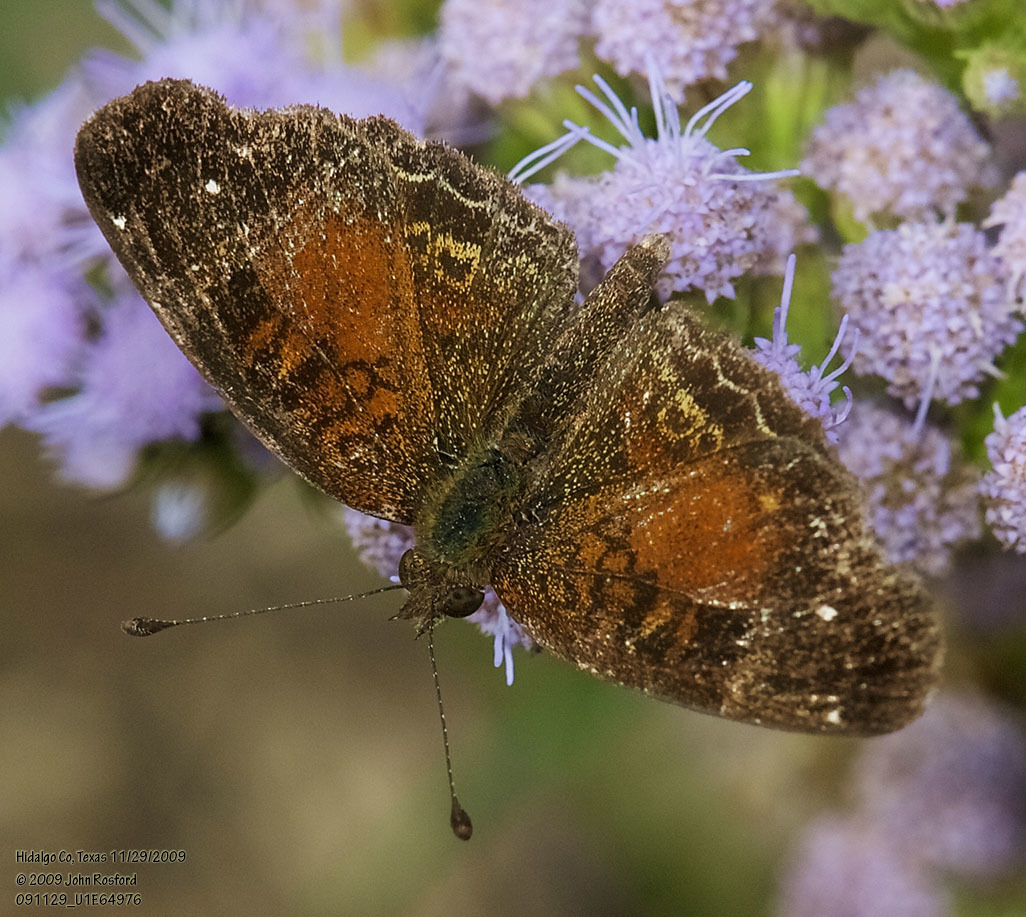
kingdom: Animalia
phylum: Arthropoda
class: Insecta
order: Lepidoptera
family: Nymphalidae
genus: Anthanassa
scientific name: Anthanassa argentea
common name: Chestnut crescent
